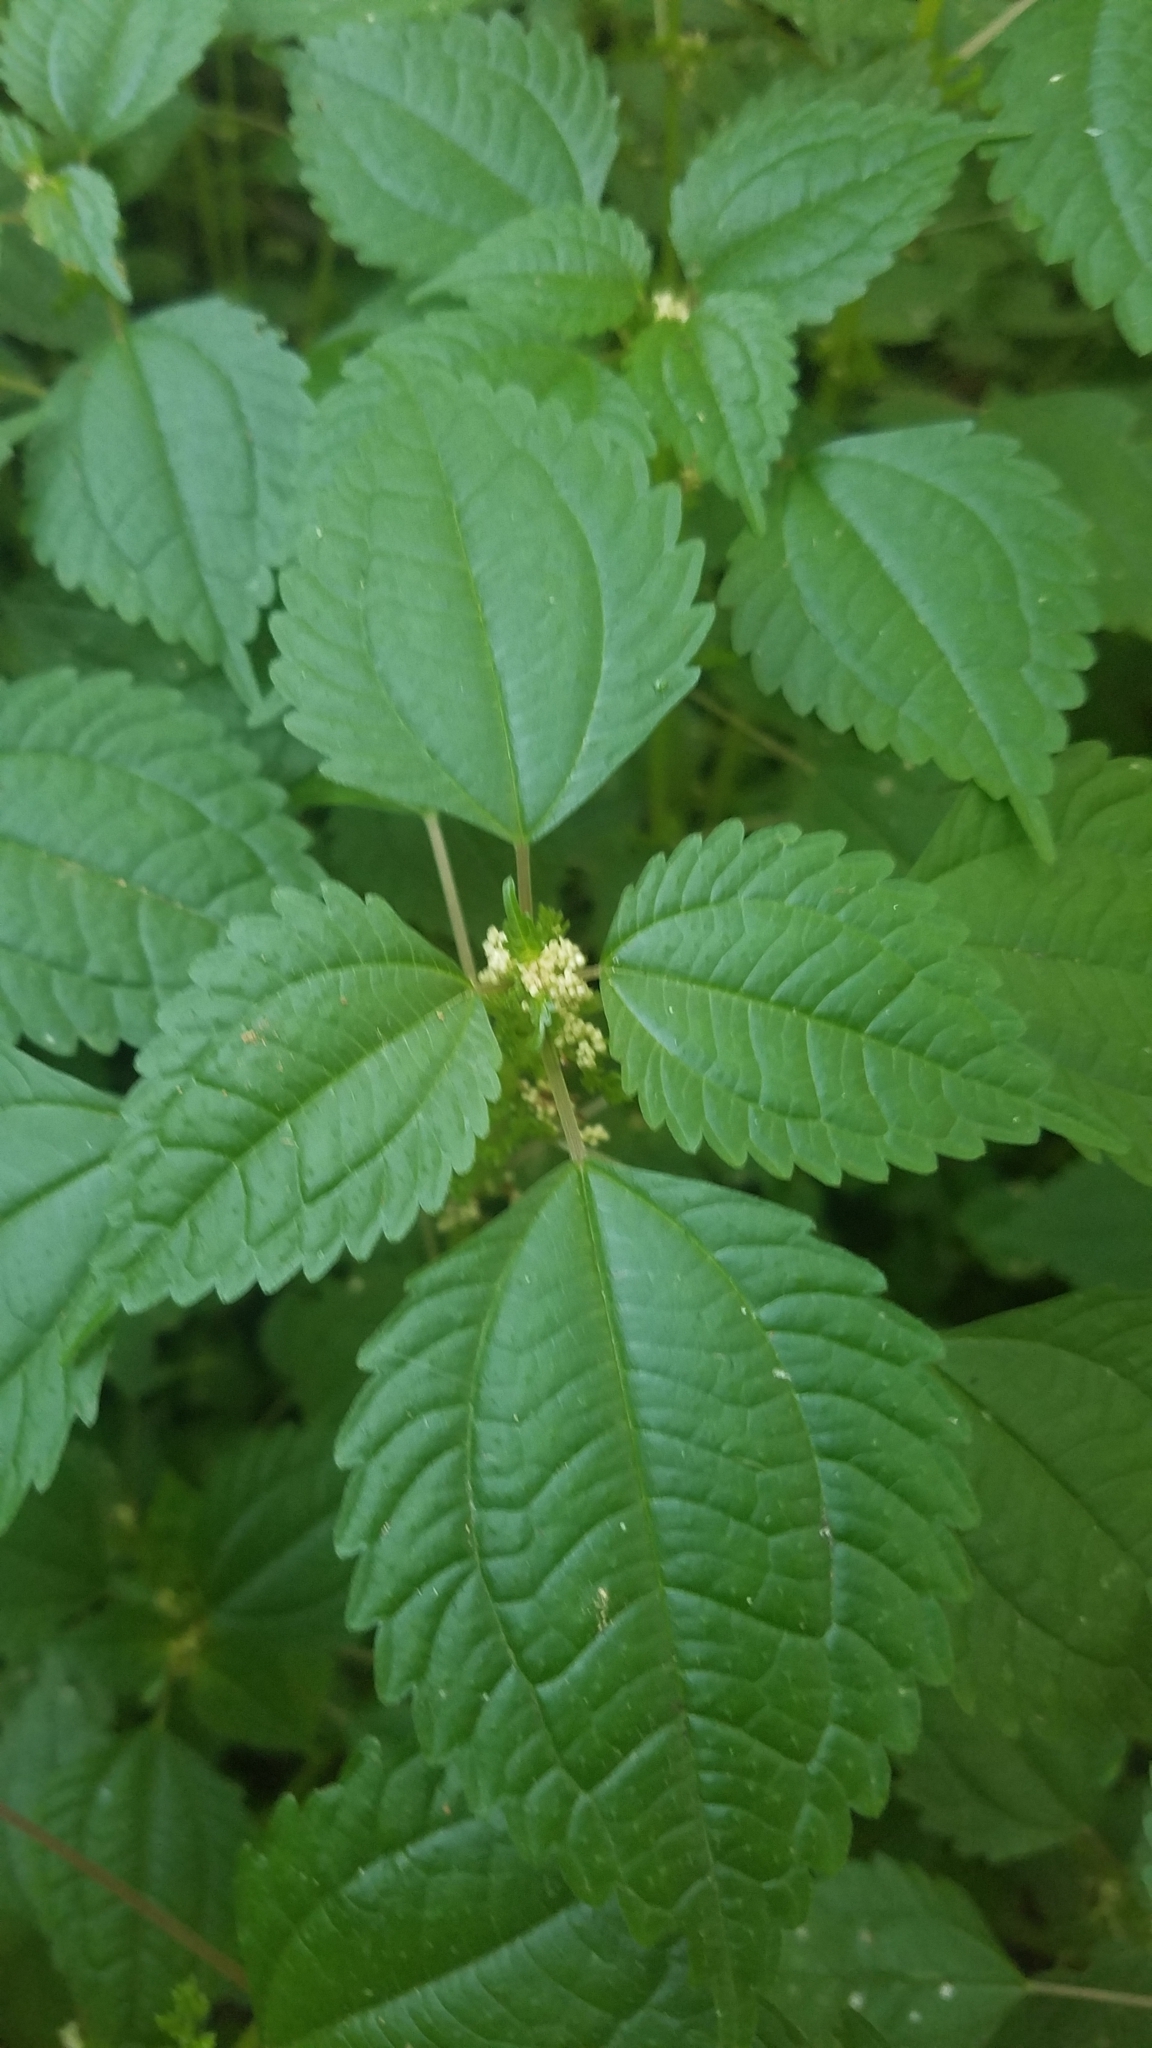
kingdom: Plantae
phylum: Tracheophyta
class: Magnoliopsida
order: Rosales
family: Urticaceae
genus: Pilea
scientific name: Pilea pumila
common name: Clearweed
